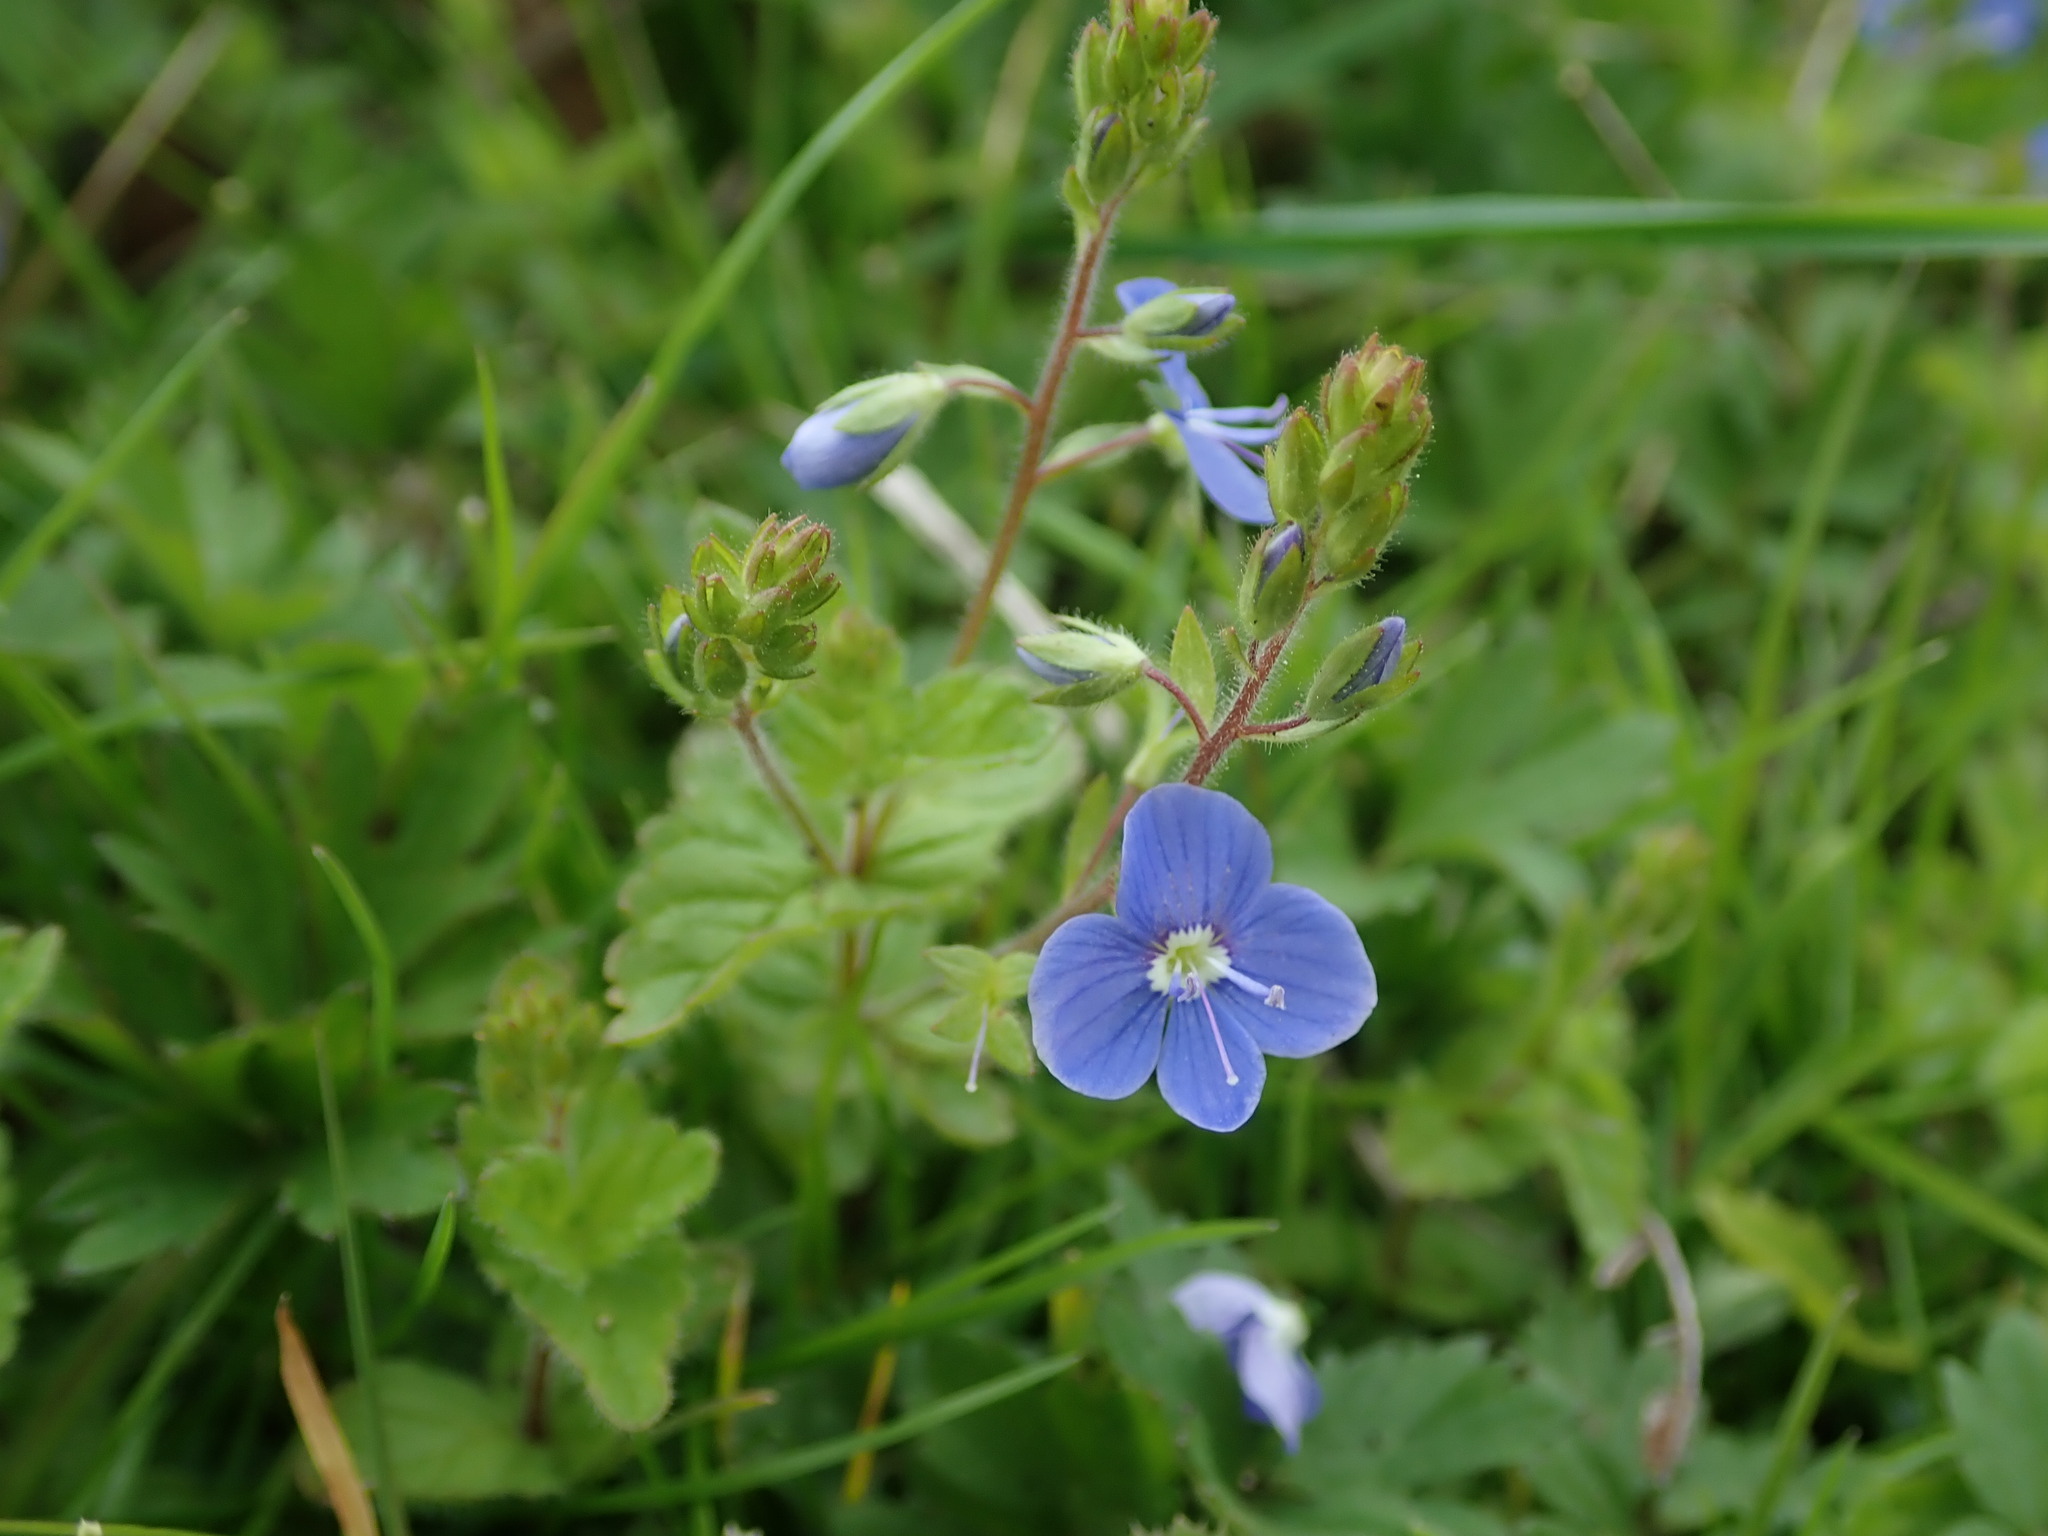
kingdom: Plantae
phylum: Tracheophyta
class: Magnoliopsida
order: Lamiales
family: Plantaginaceae
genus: Veronica
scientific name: Veronica chamaedrys
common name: Germander speedwell
